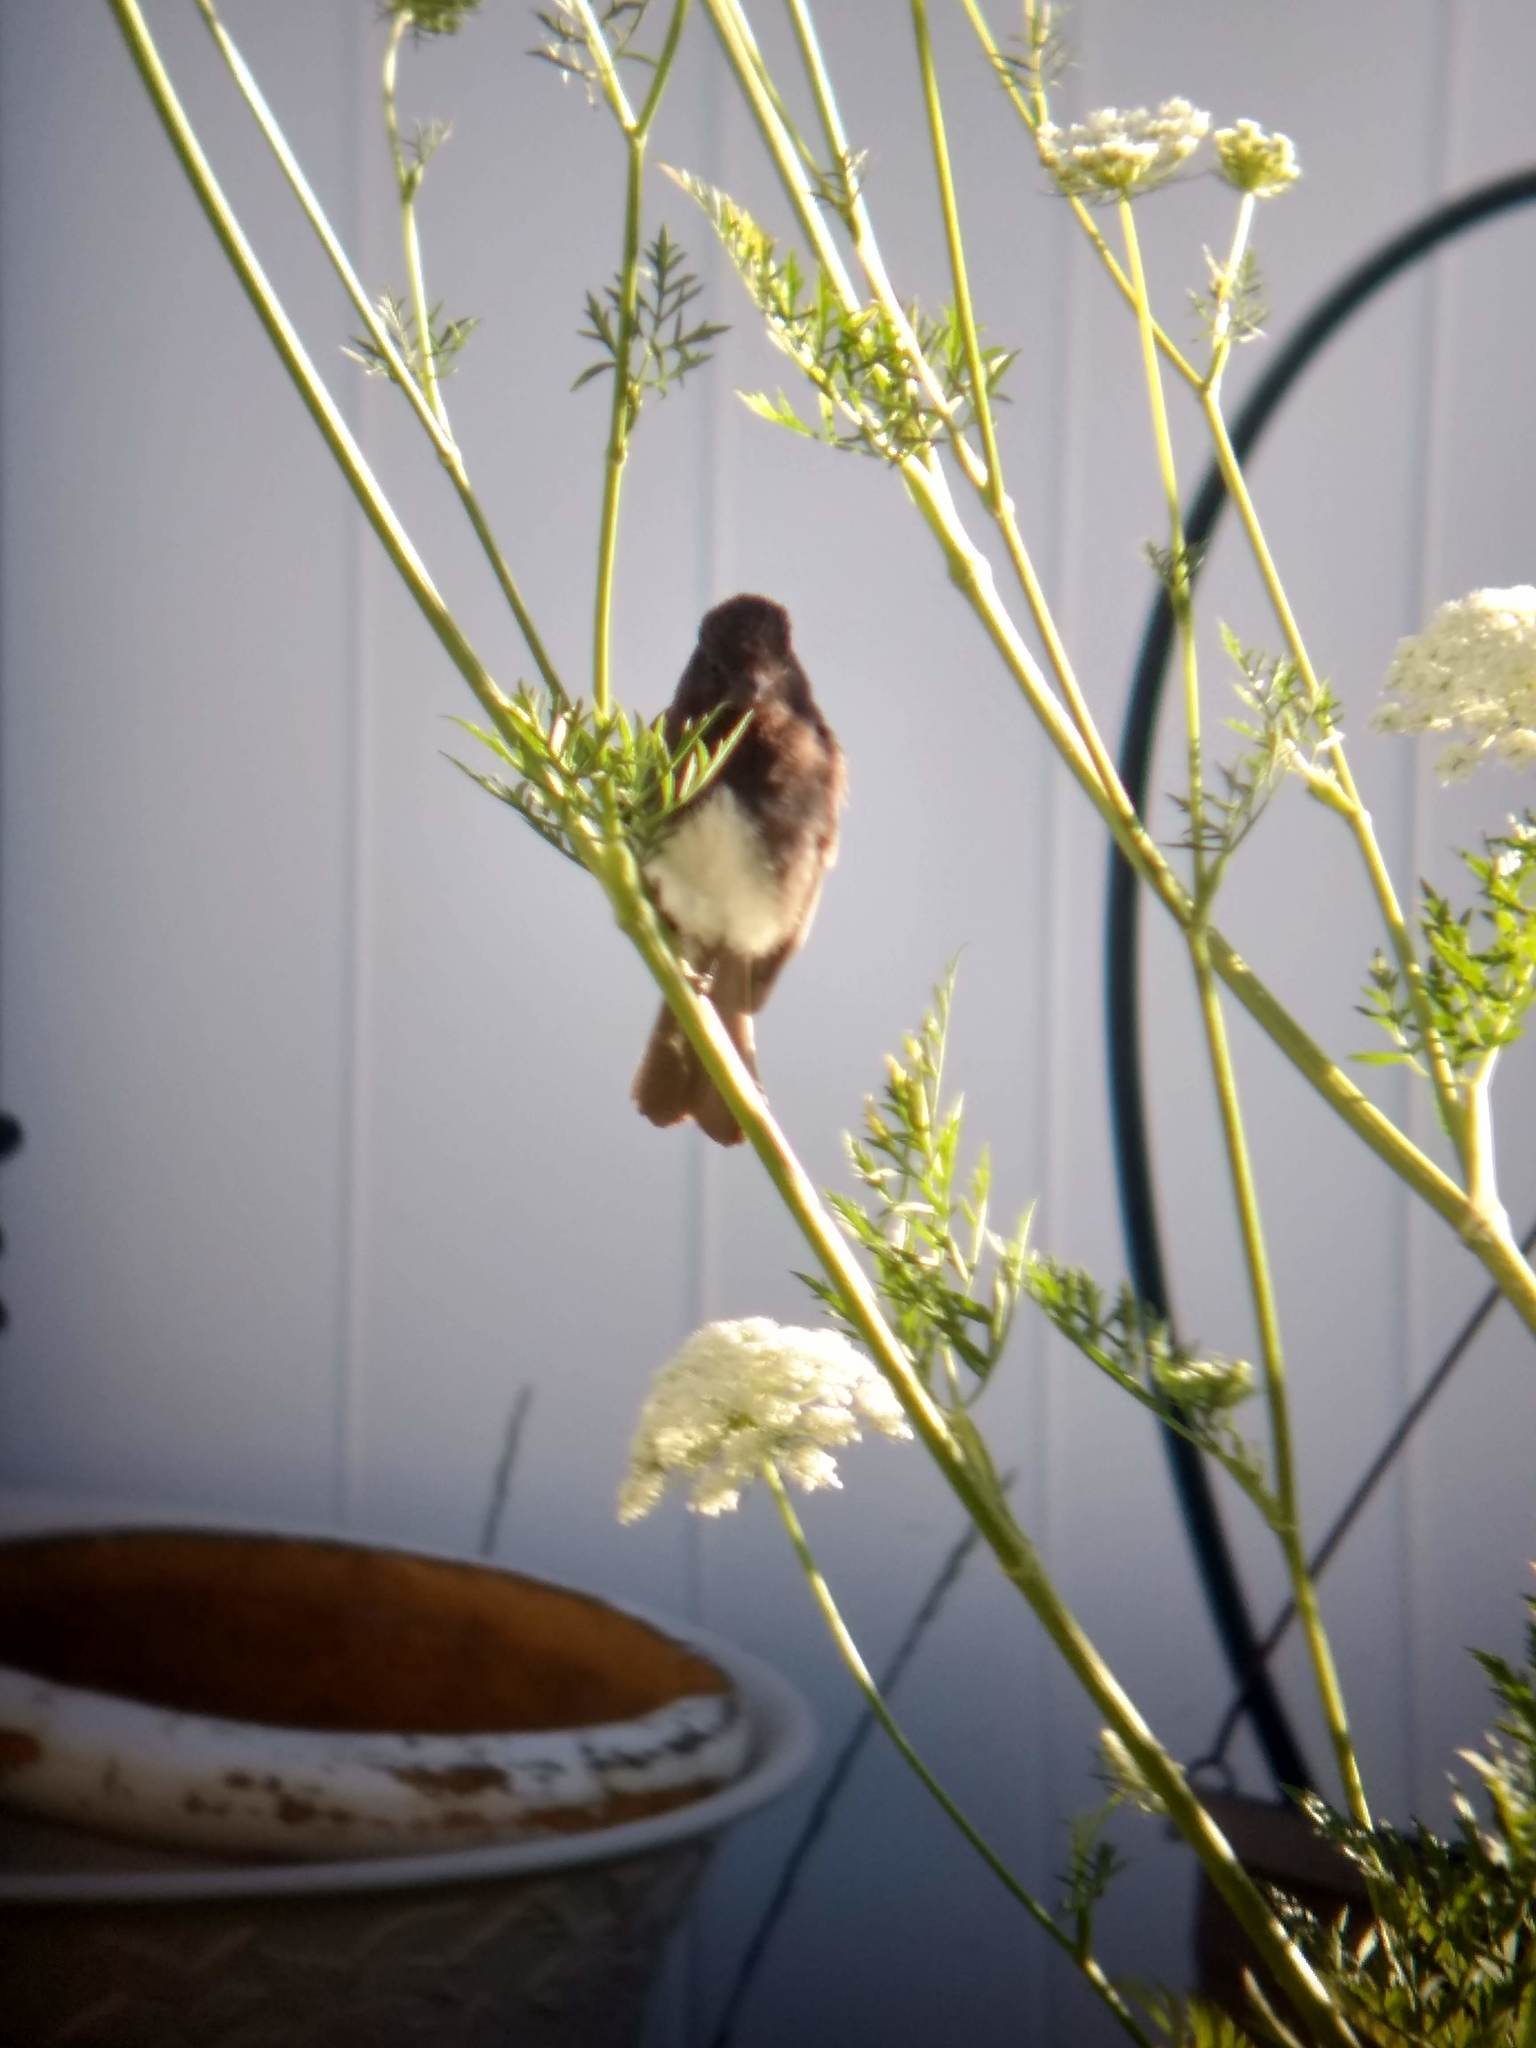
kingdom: Animalia
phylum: Chordata
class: Aves
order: Passeriformes
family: Tyrannidae
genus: Sayornis
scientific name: Sayornis nigricans
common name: Black phoebe
